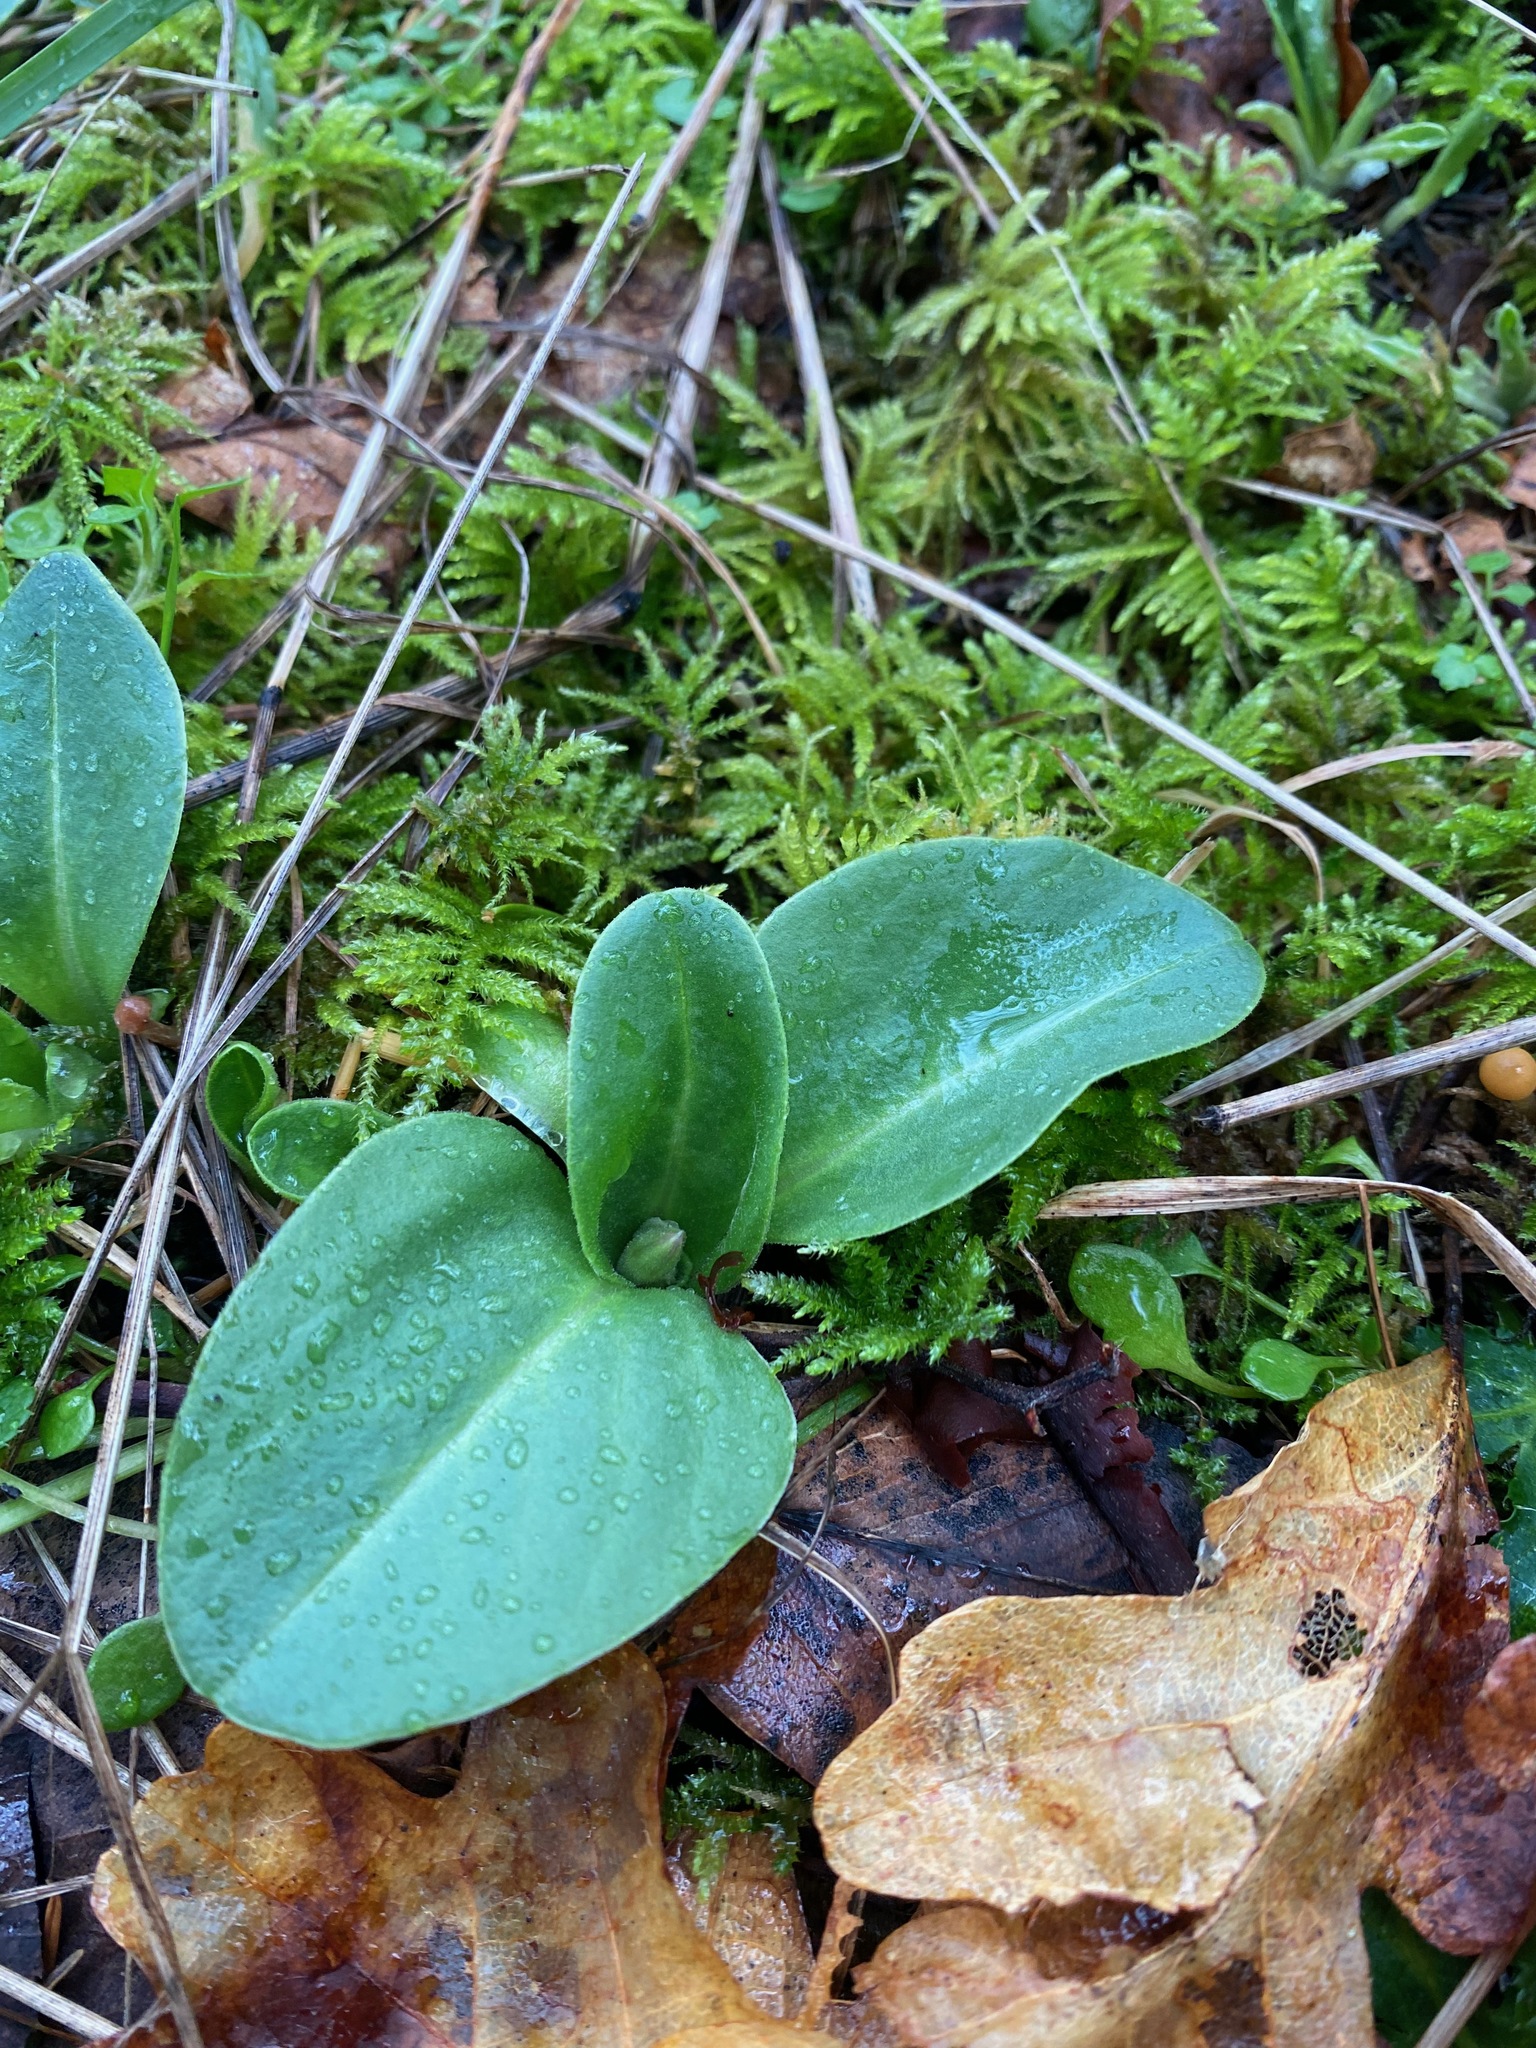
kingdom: Plantae
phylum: Tracheophyta
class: Magnoliopsida
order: Ericales
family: Primulaceae
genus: Dodecatheon
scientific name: Dodecatheon hendersonii
